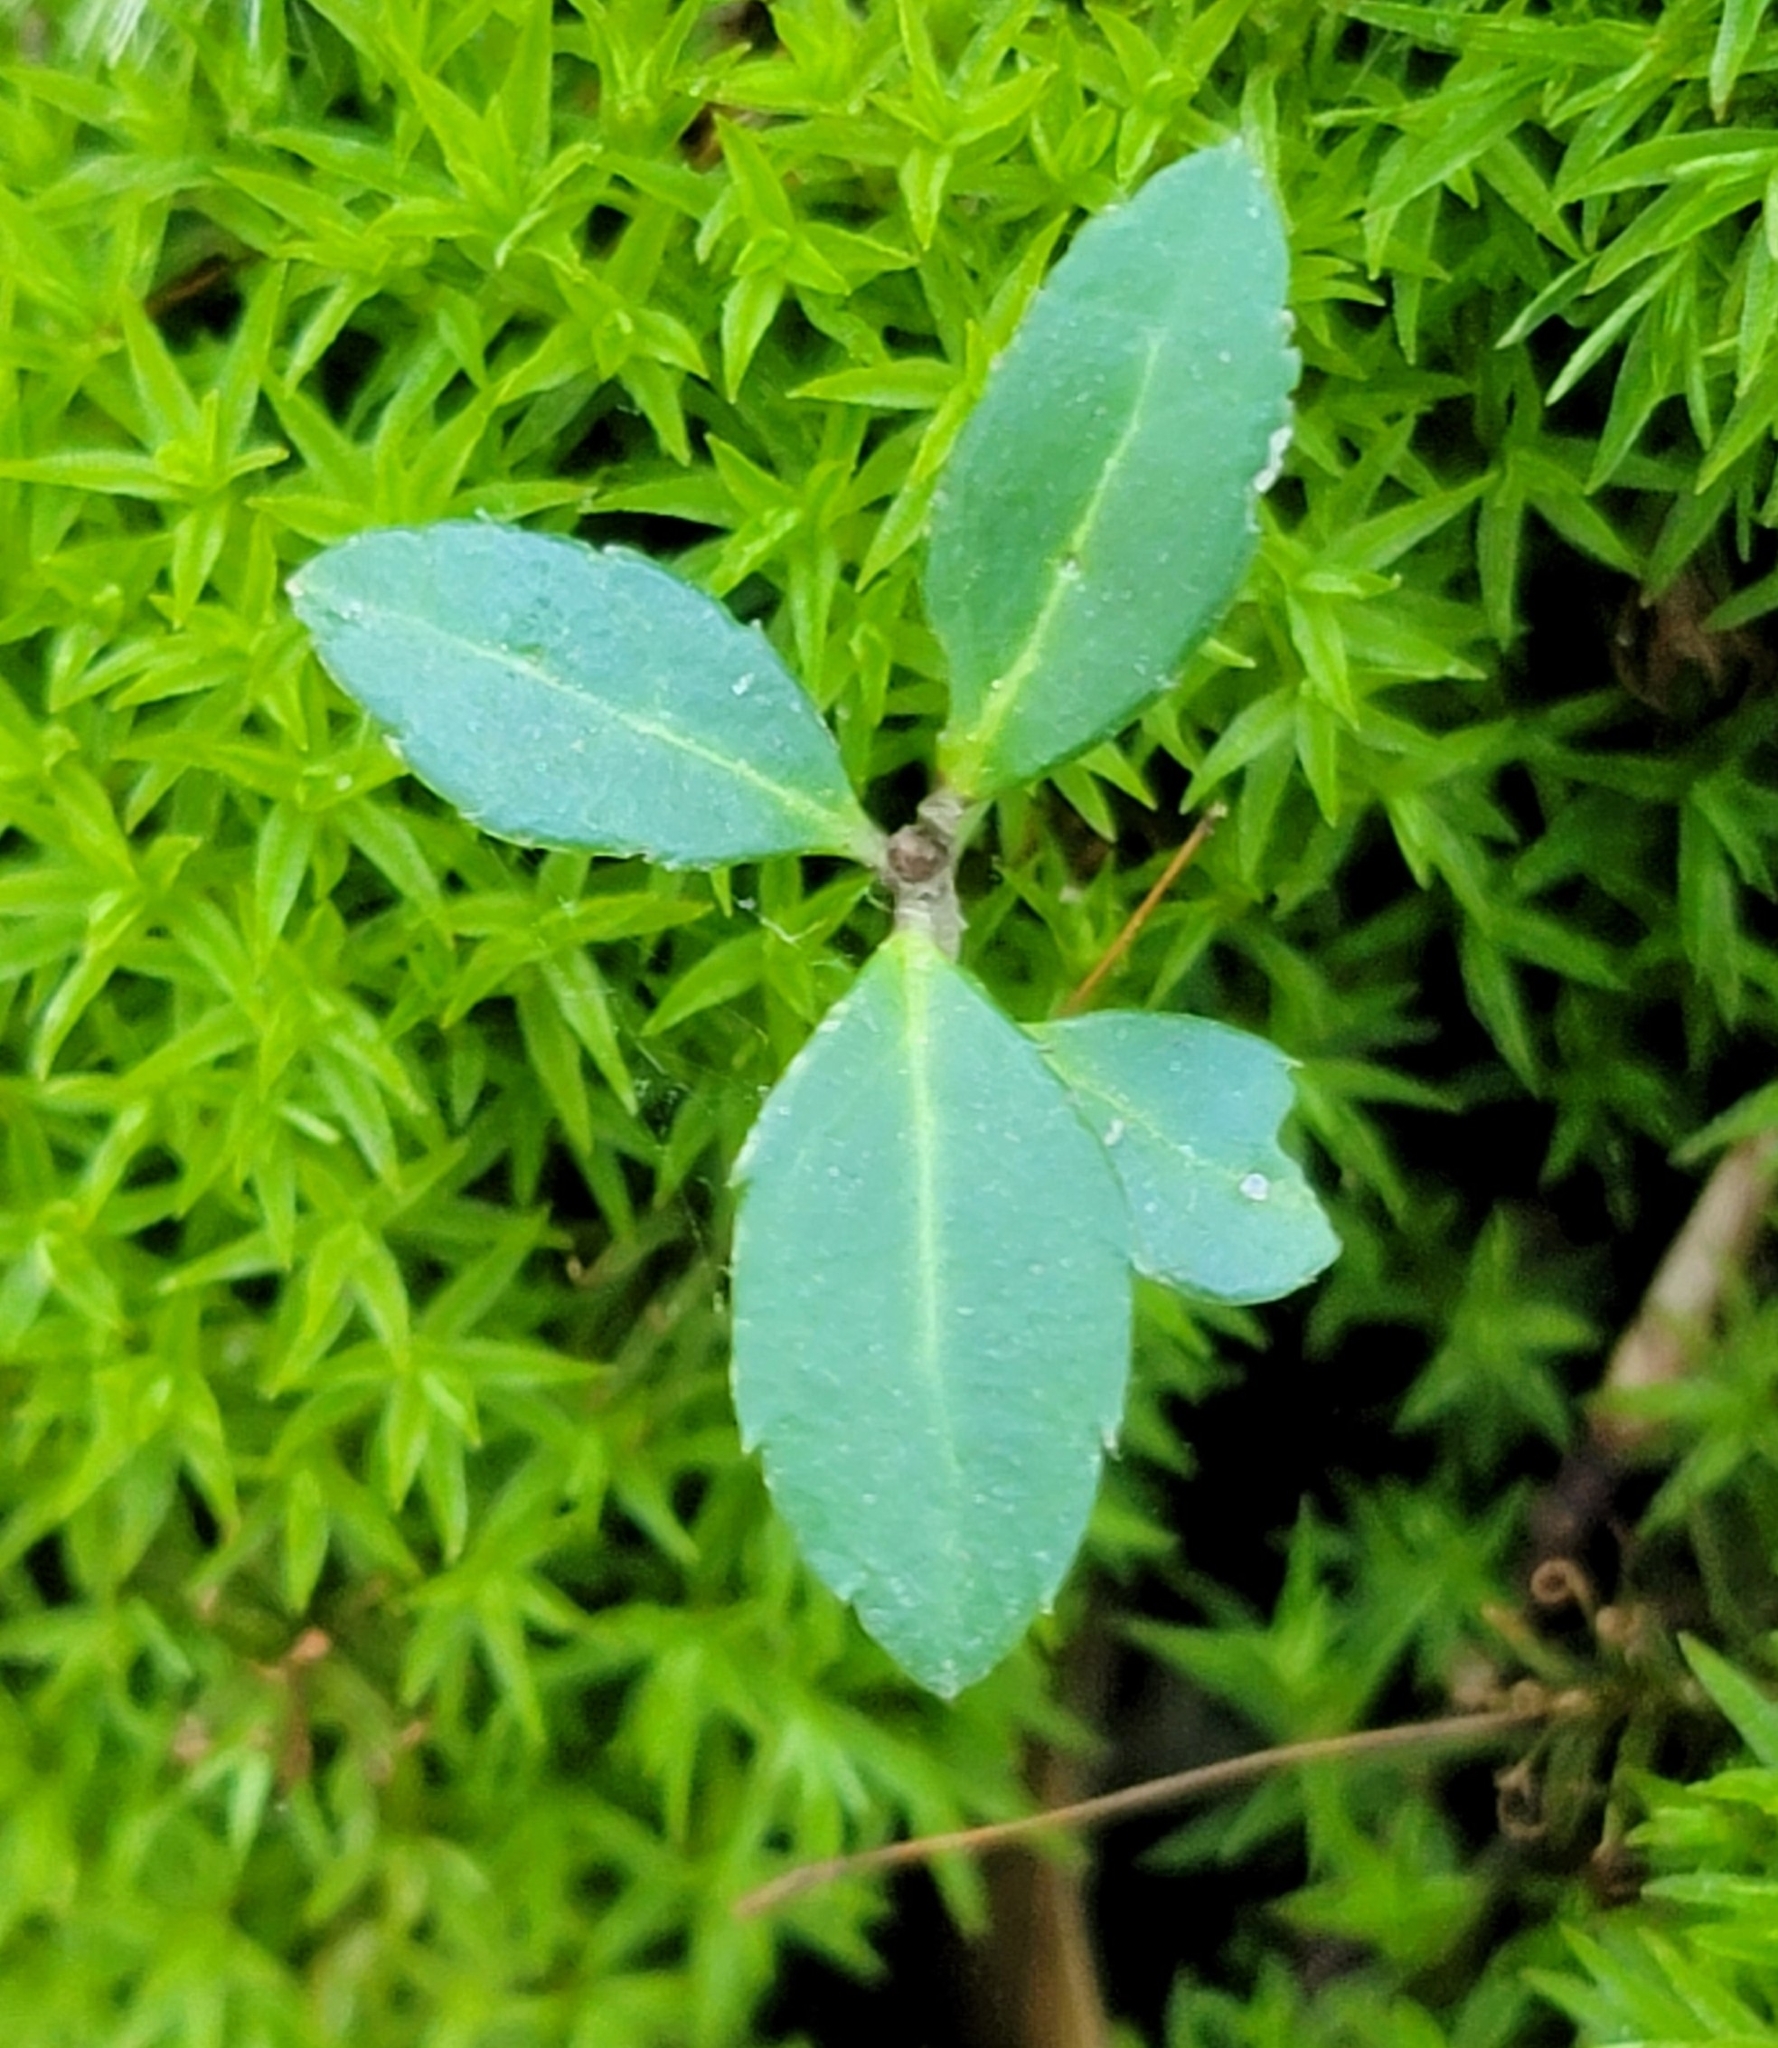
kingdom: Plantae
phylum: Tracheophyta
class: Magnoliopsida
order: Aquifoliales
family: Aquifoliaceae
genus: Ilex
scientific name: Ilex crenata
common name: Japanese holly
